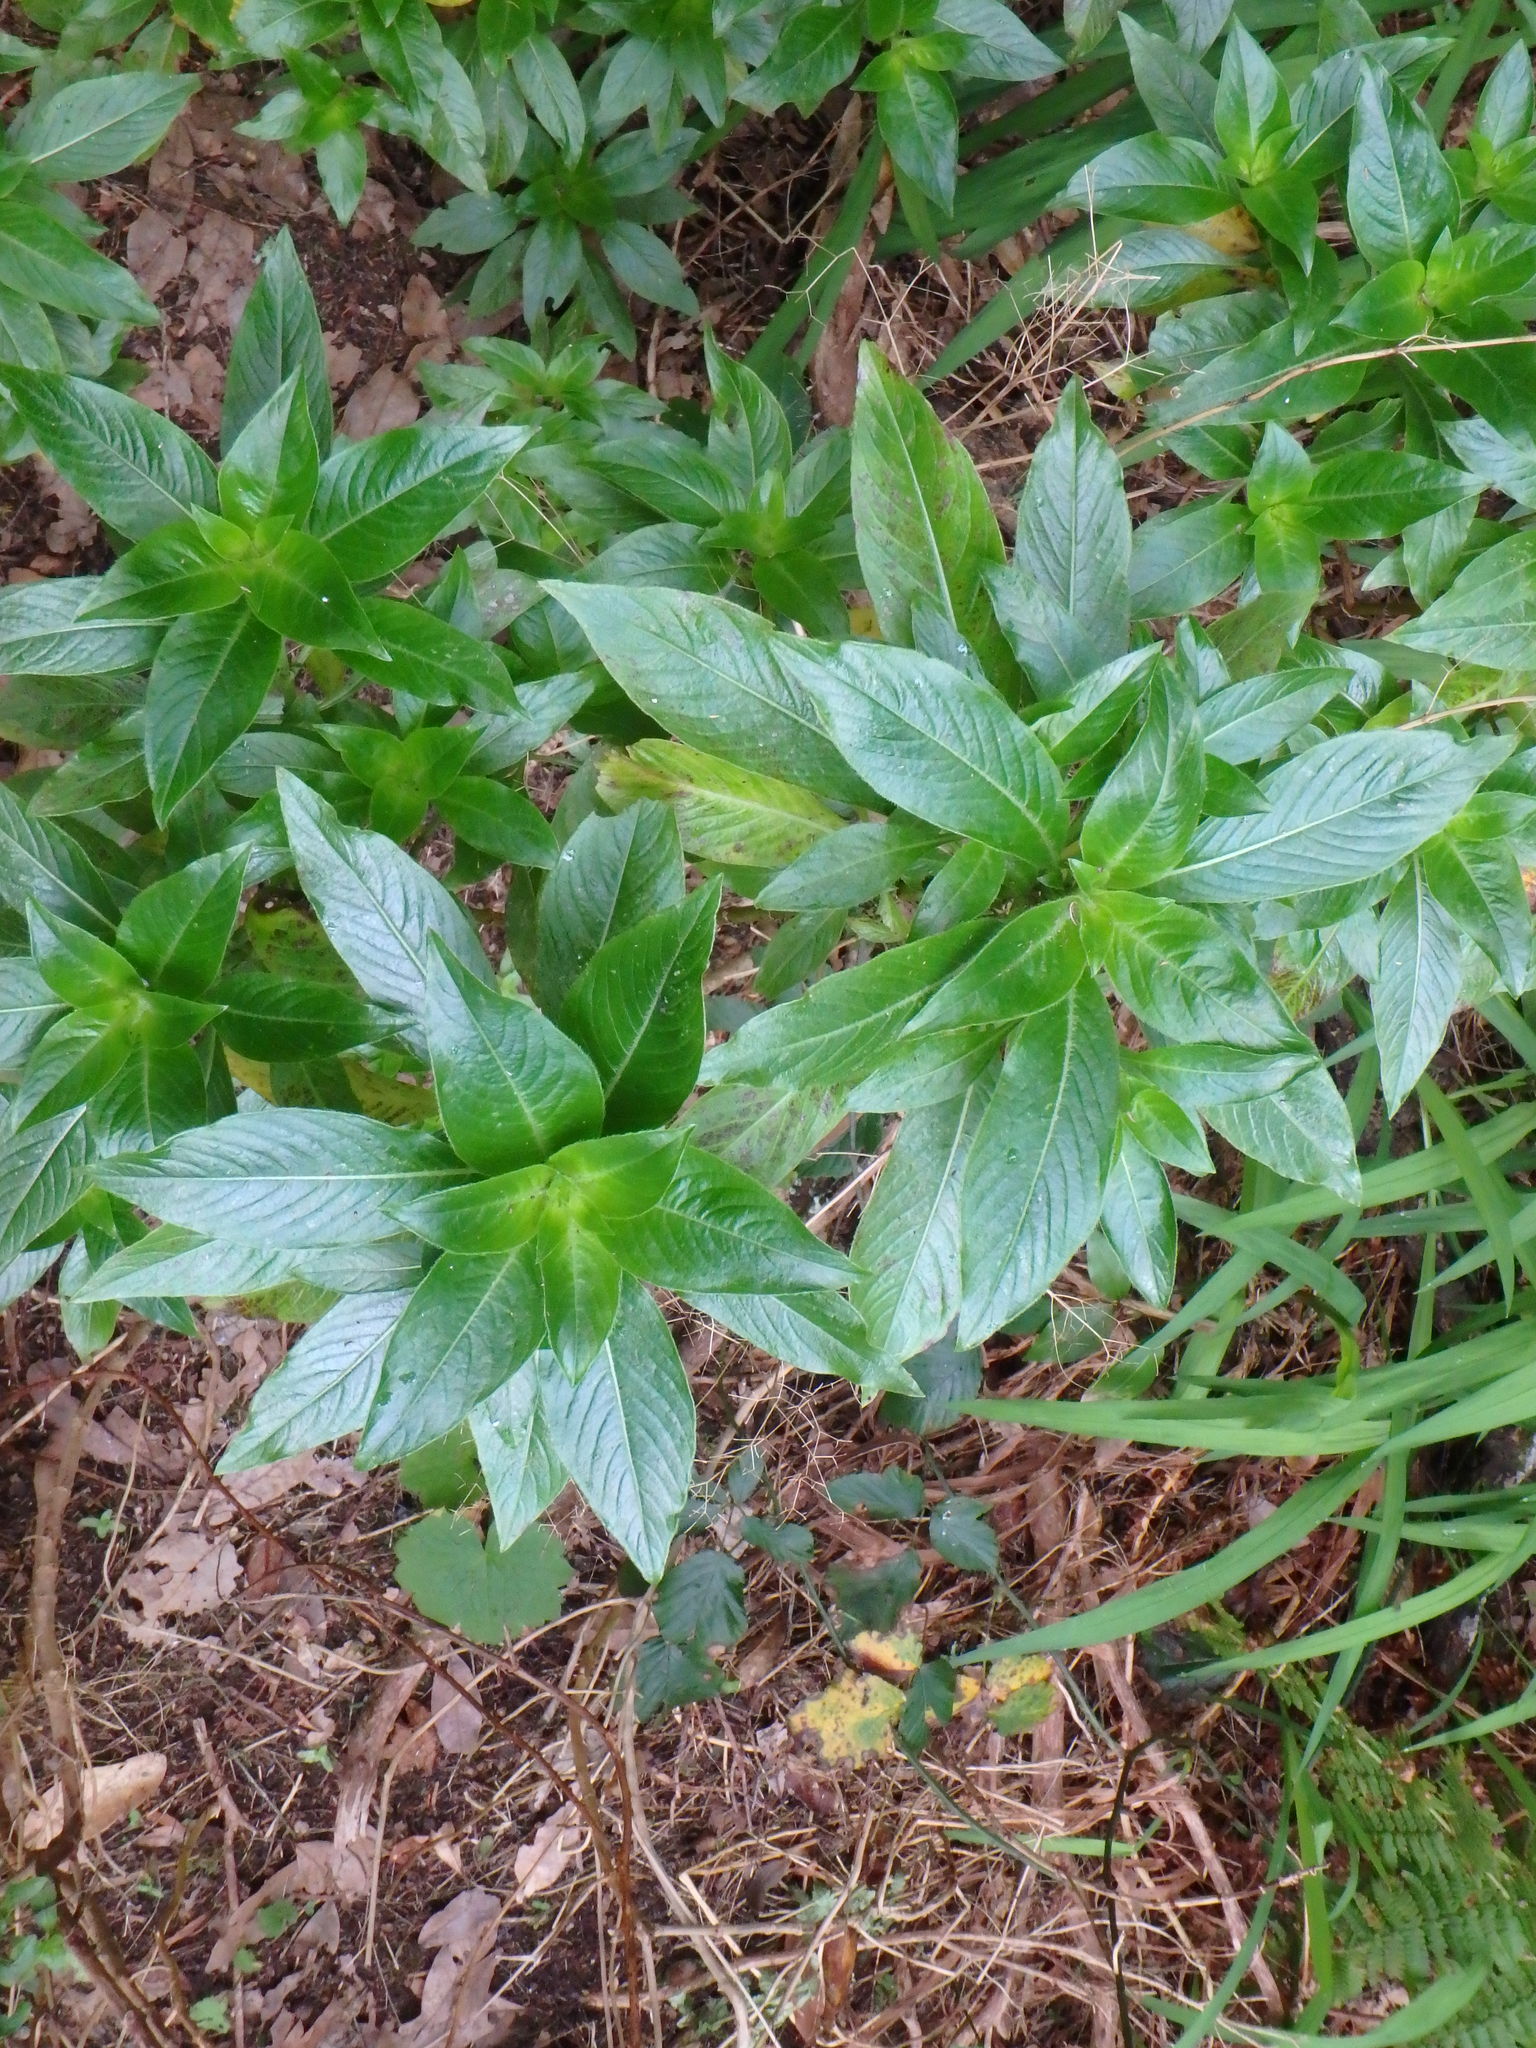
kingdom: Plantae
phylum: Tracheophyta
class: Magnoliopsida
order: Gentianales
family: Rubiaceae
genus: Phyllis
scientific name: Phyllis nobla
